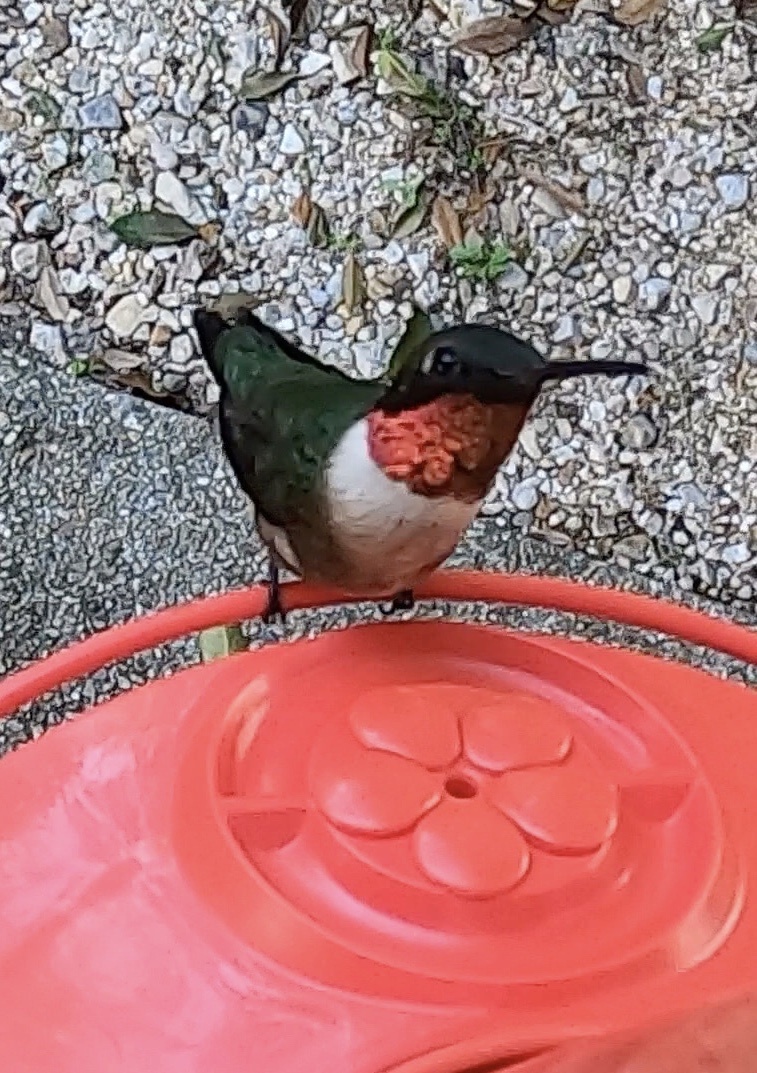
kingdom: Animalia
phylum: Chordata
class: Aves
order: Apodiformes
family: Trochilidae
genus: Archilochus
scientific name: Archilochus colubris
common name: Ruby-throated hummingbird
